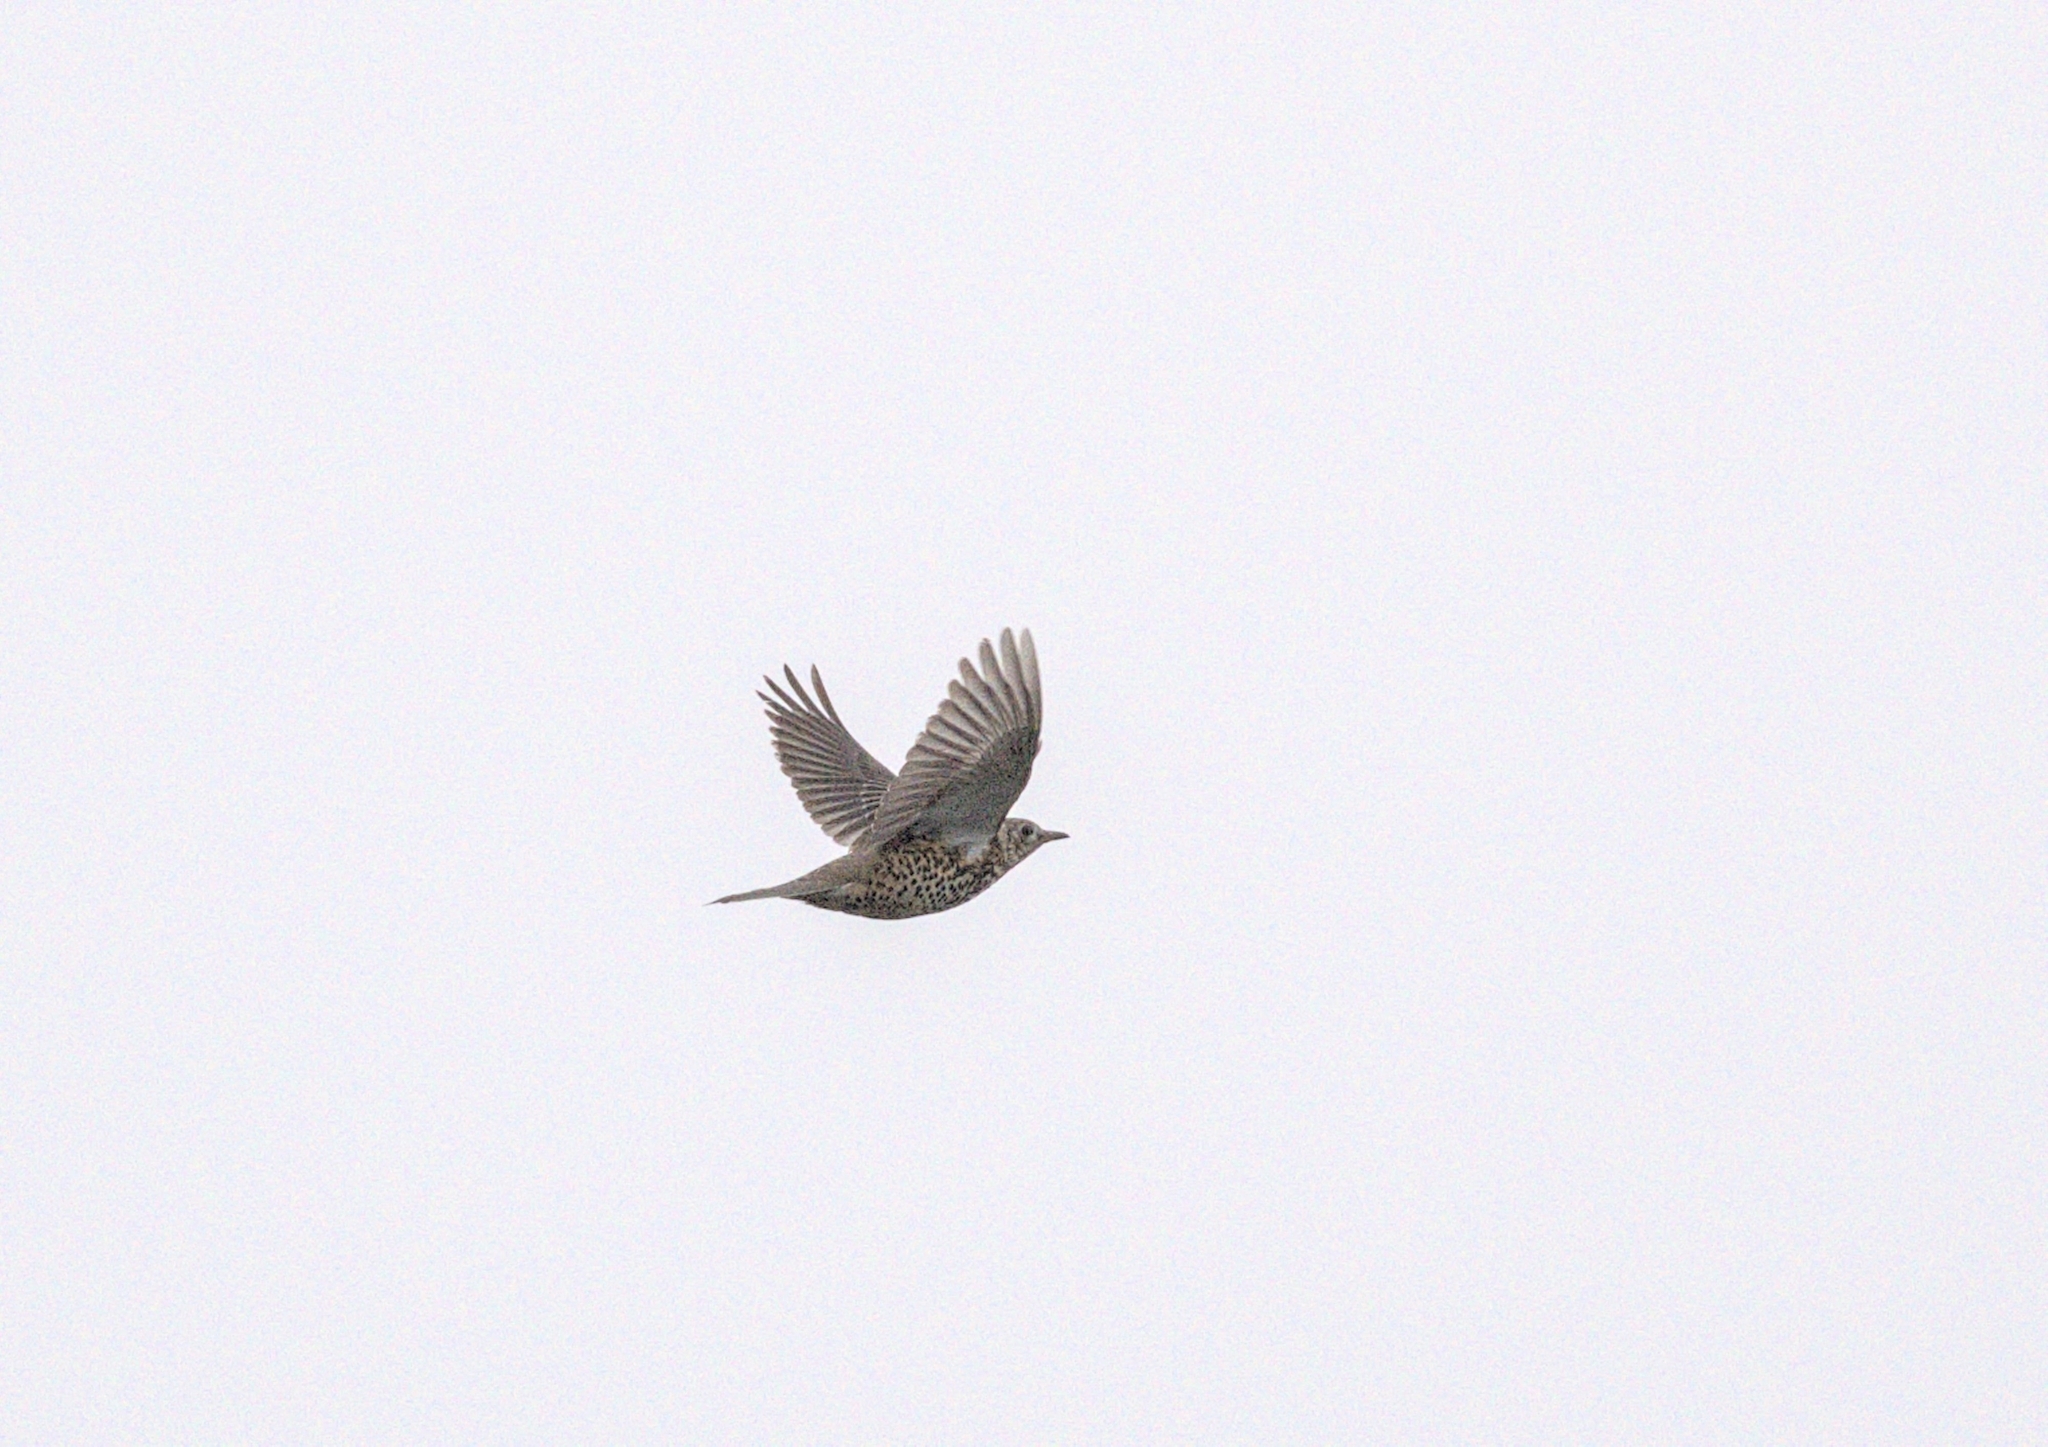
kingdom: Animalia
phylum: Chordata
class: Aves
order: Passeriformes
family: Turdidae
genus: Turdus
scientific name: Turdus viscivorus
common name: Mistle thrush
